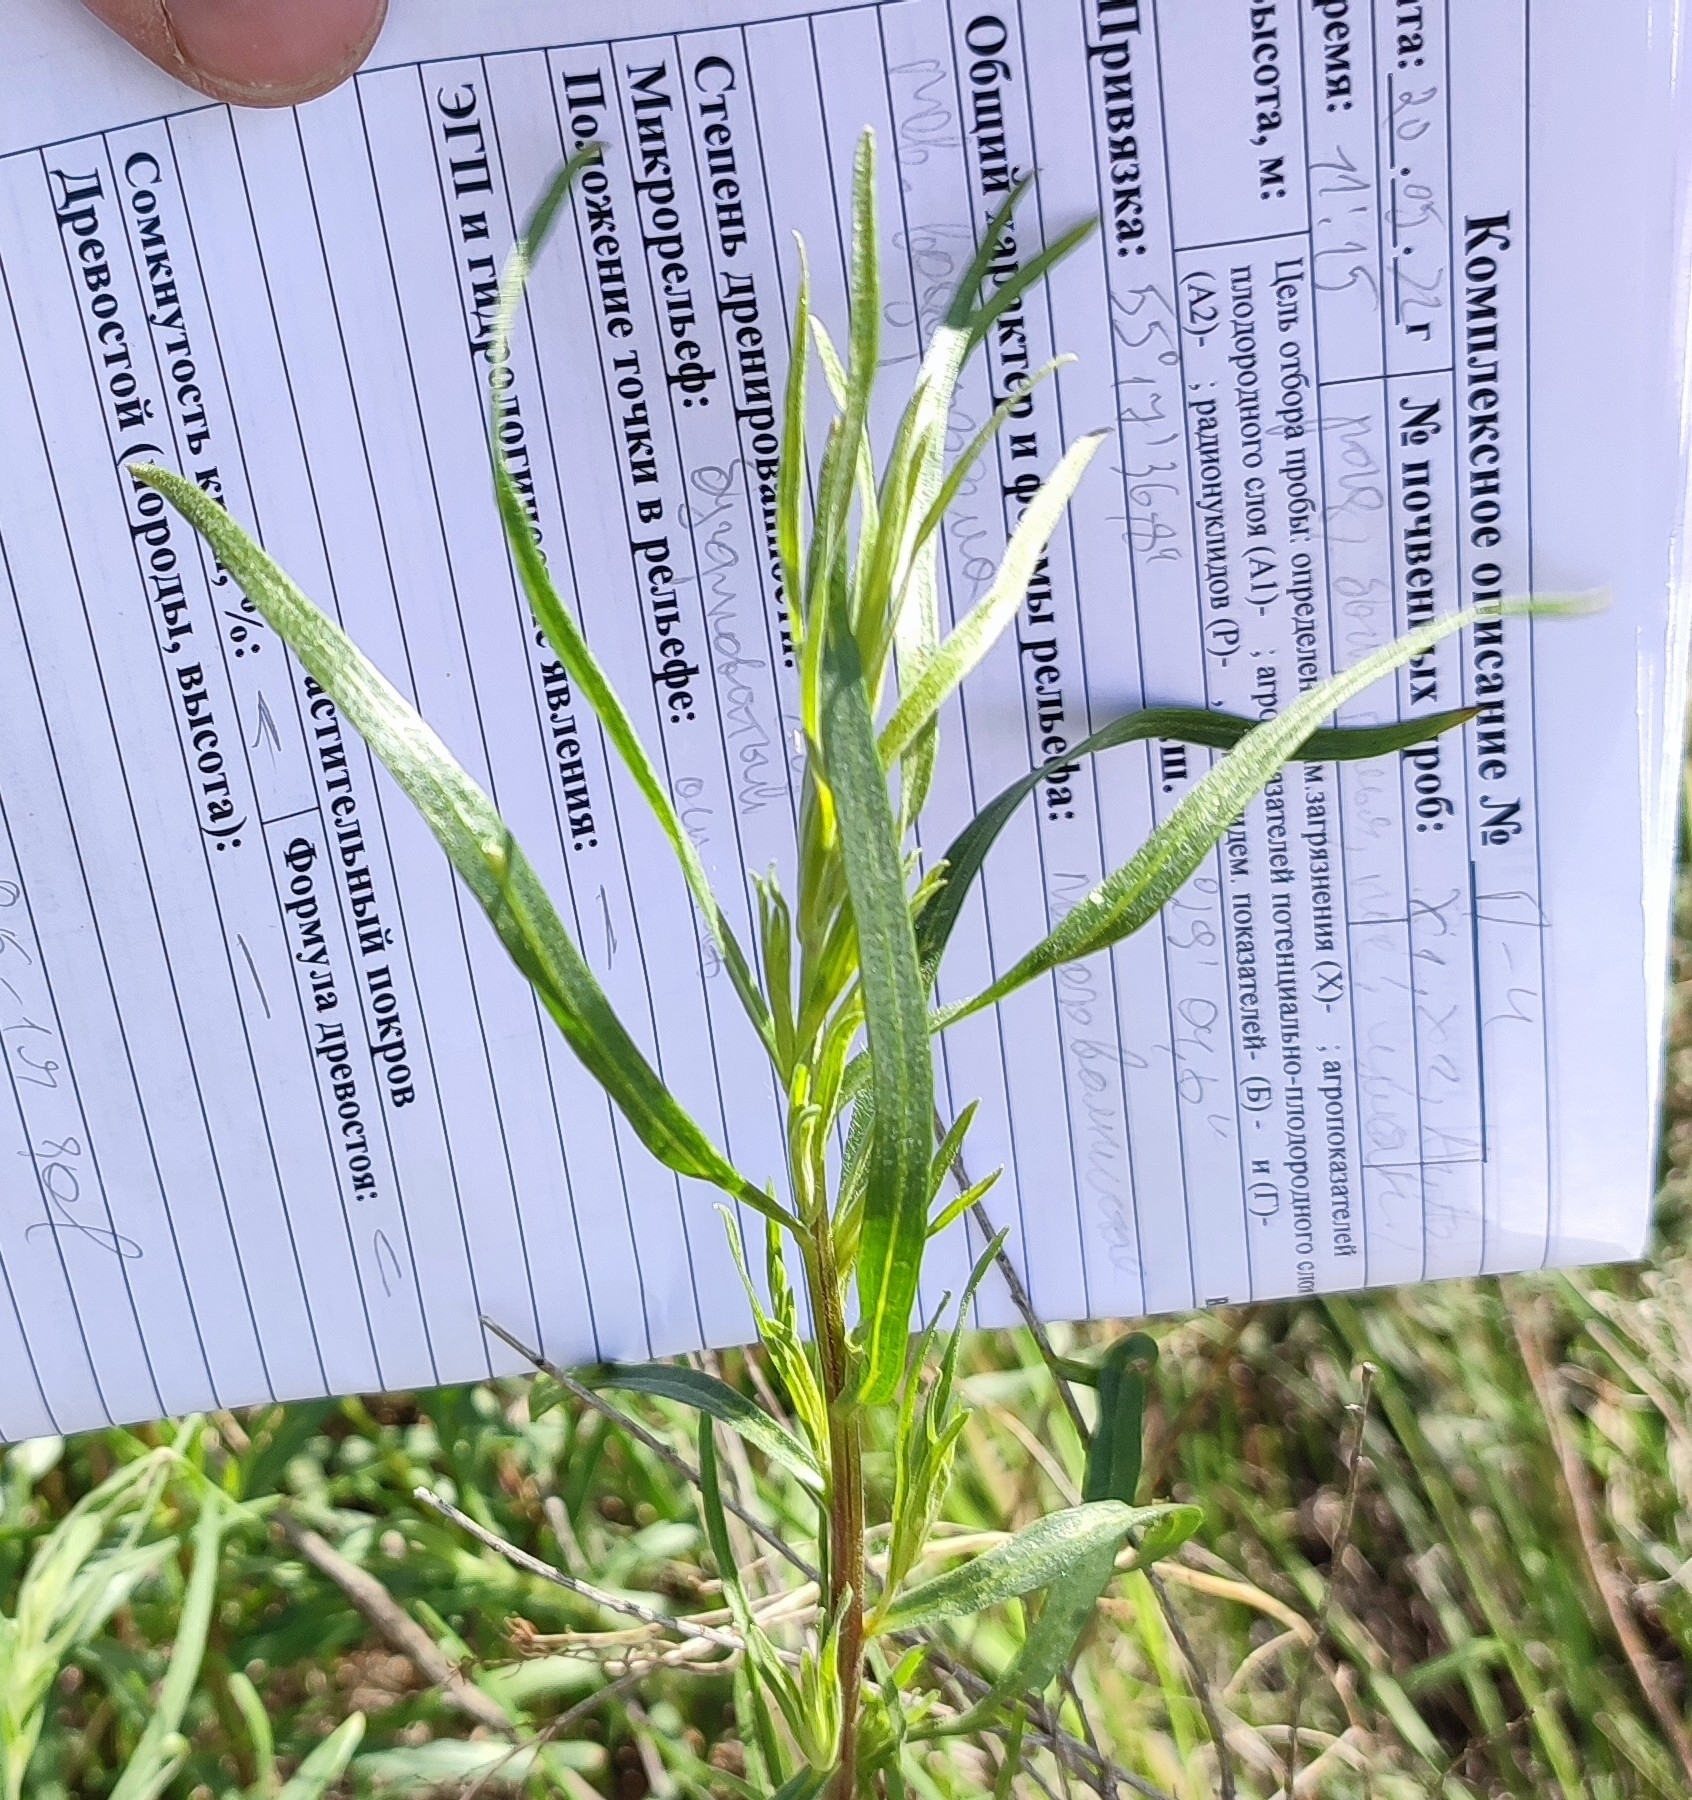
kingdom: Plantae
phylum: Tracheophyta
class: Magnoliopsida
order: Asterales
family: Asteraceae
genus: Artemisia
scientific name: Artemisia dracunculus
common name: Tarragon
